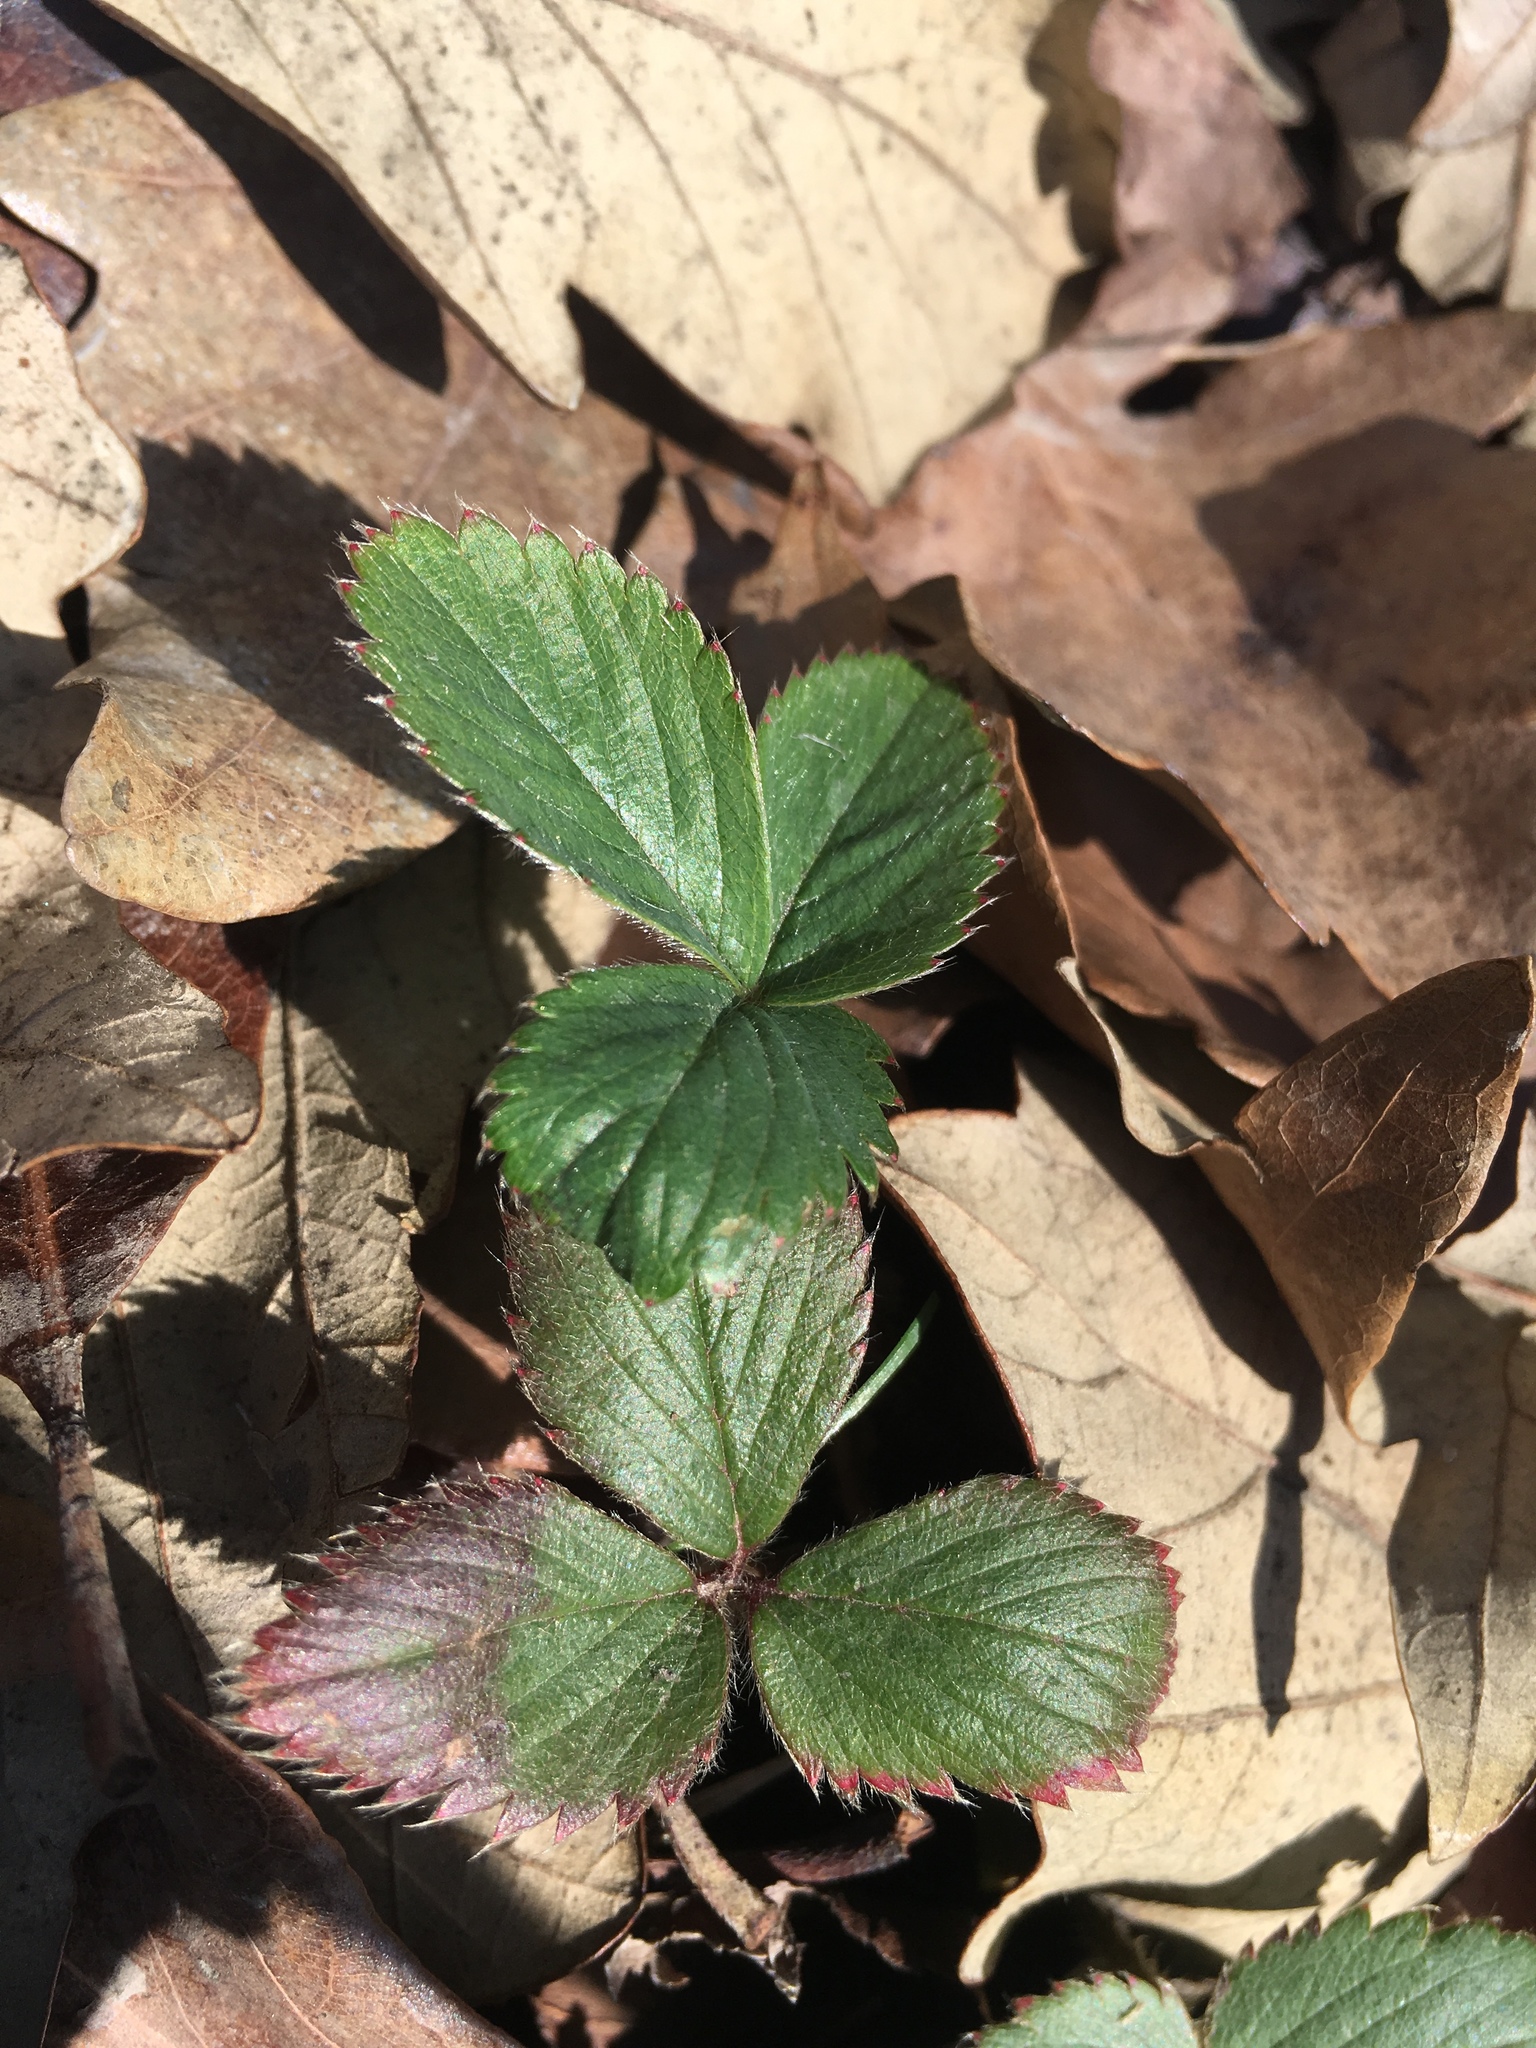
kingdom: Plantae
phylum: Tracheophyta
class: Magnoliopsida
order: Rosales
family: Rosaceae
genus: Fragaria
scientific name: Fragaria virginiana
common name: Thickleaved wild strawberry
